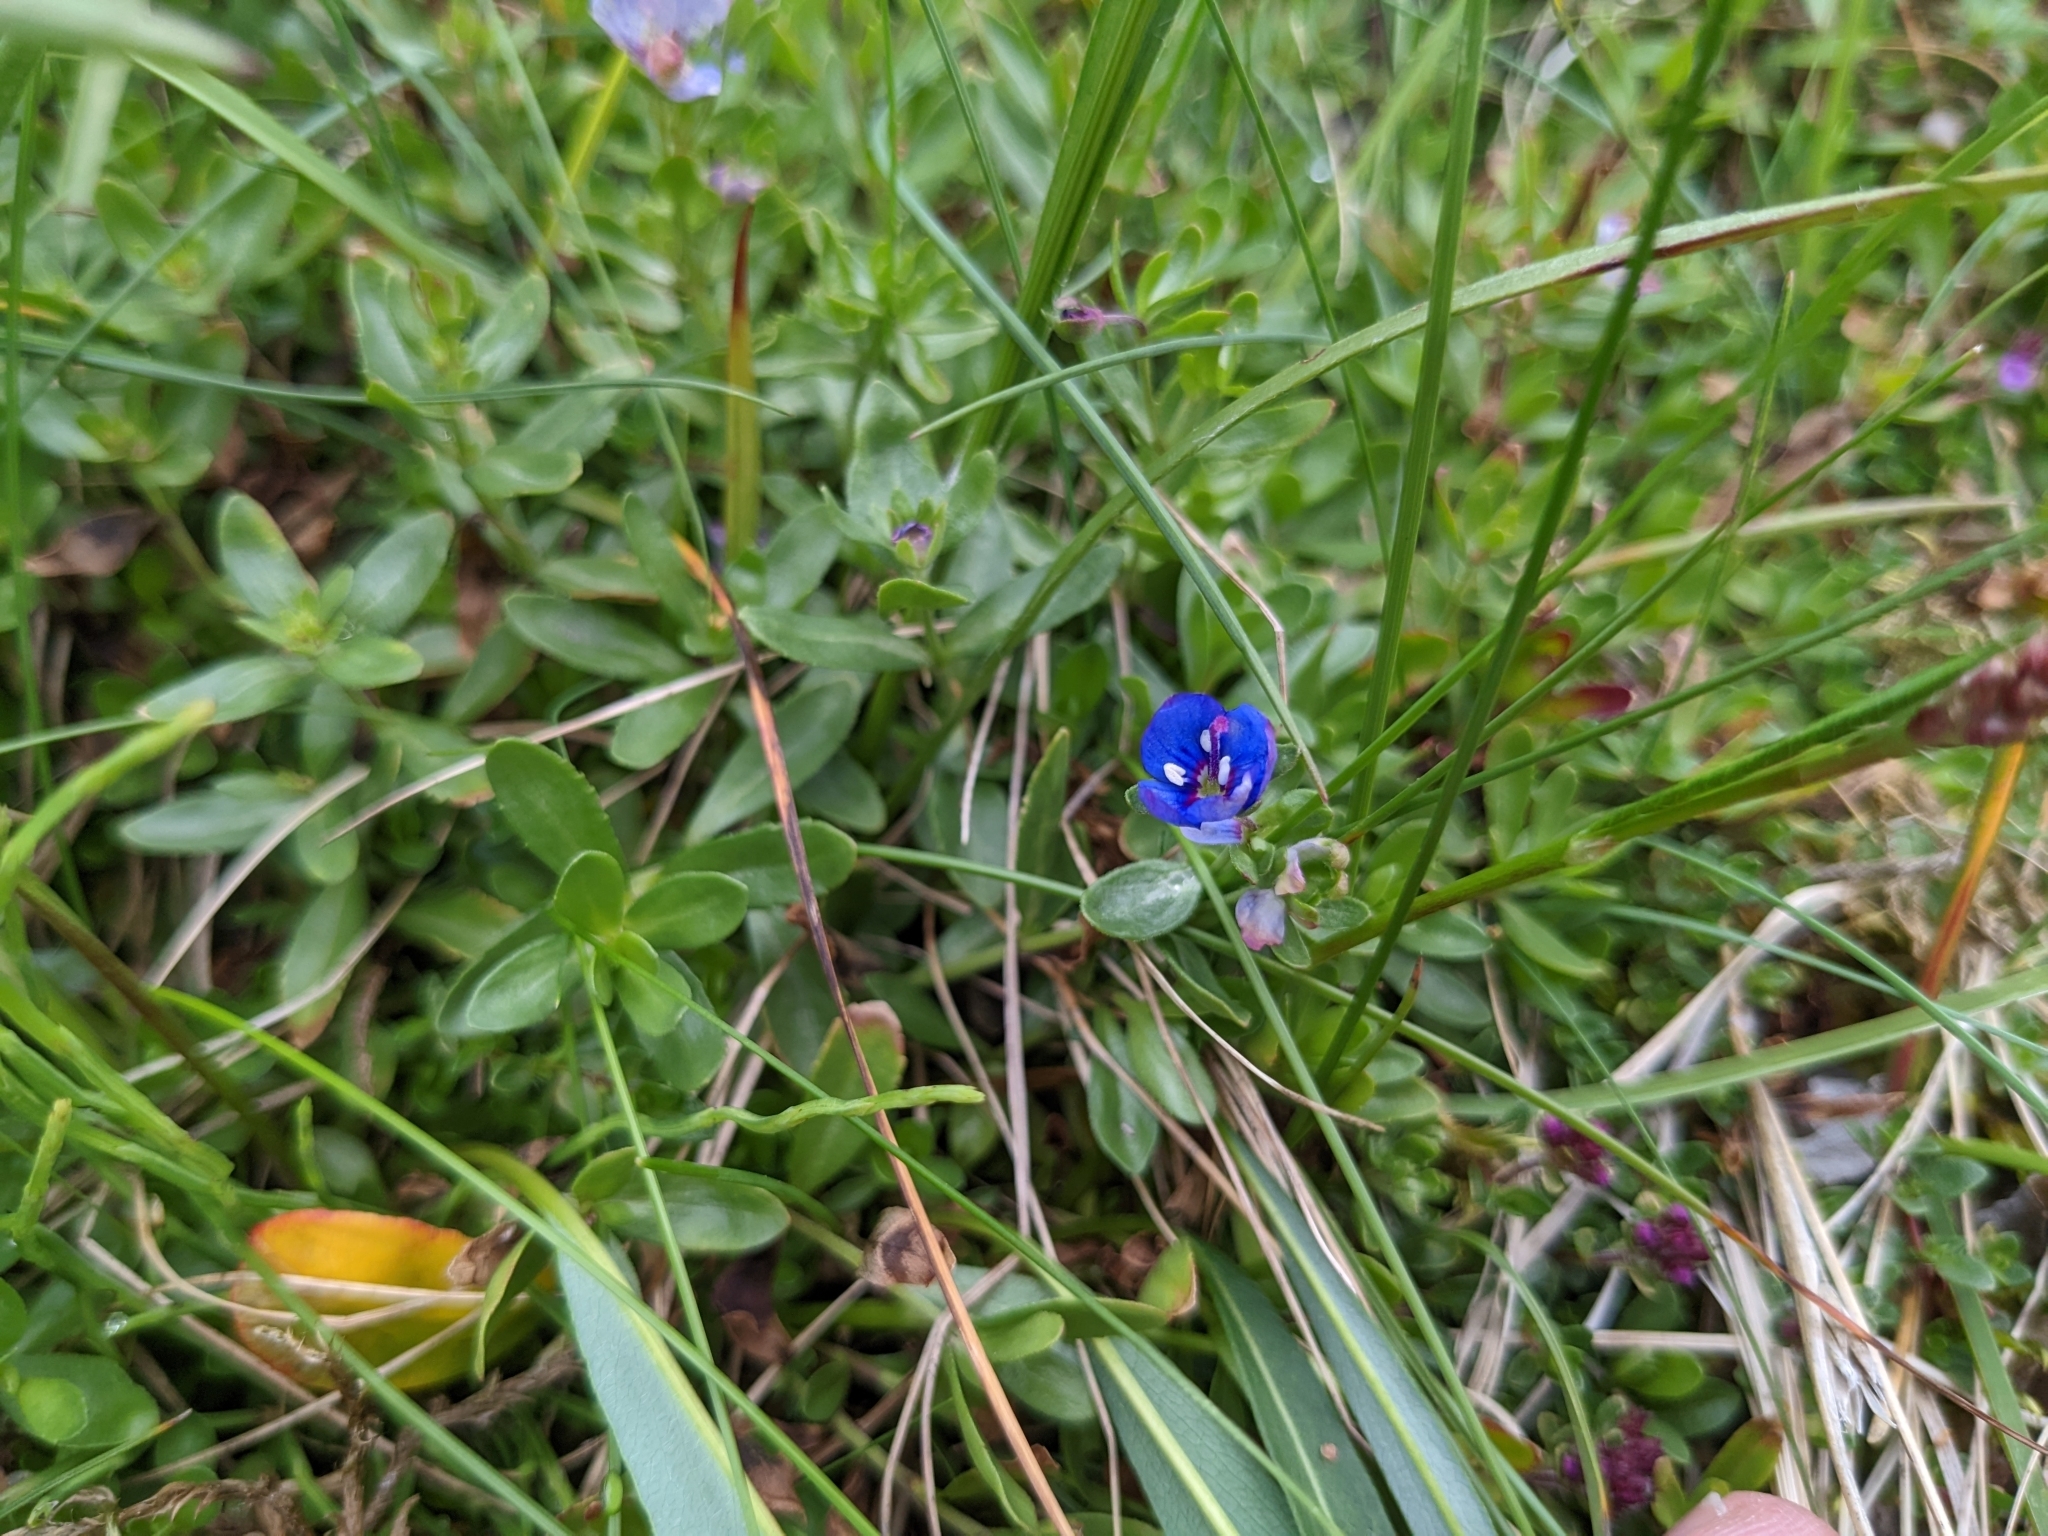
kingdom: Plantae
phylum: Tracheophyta
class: Magnoliopsida
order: Lamiales
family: Plantaginaceae
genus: Veronica
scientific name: Veronica fruticans
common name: Rock speedwell
